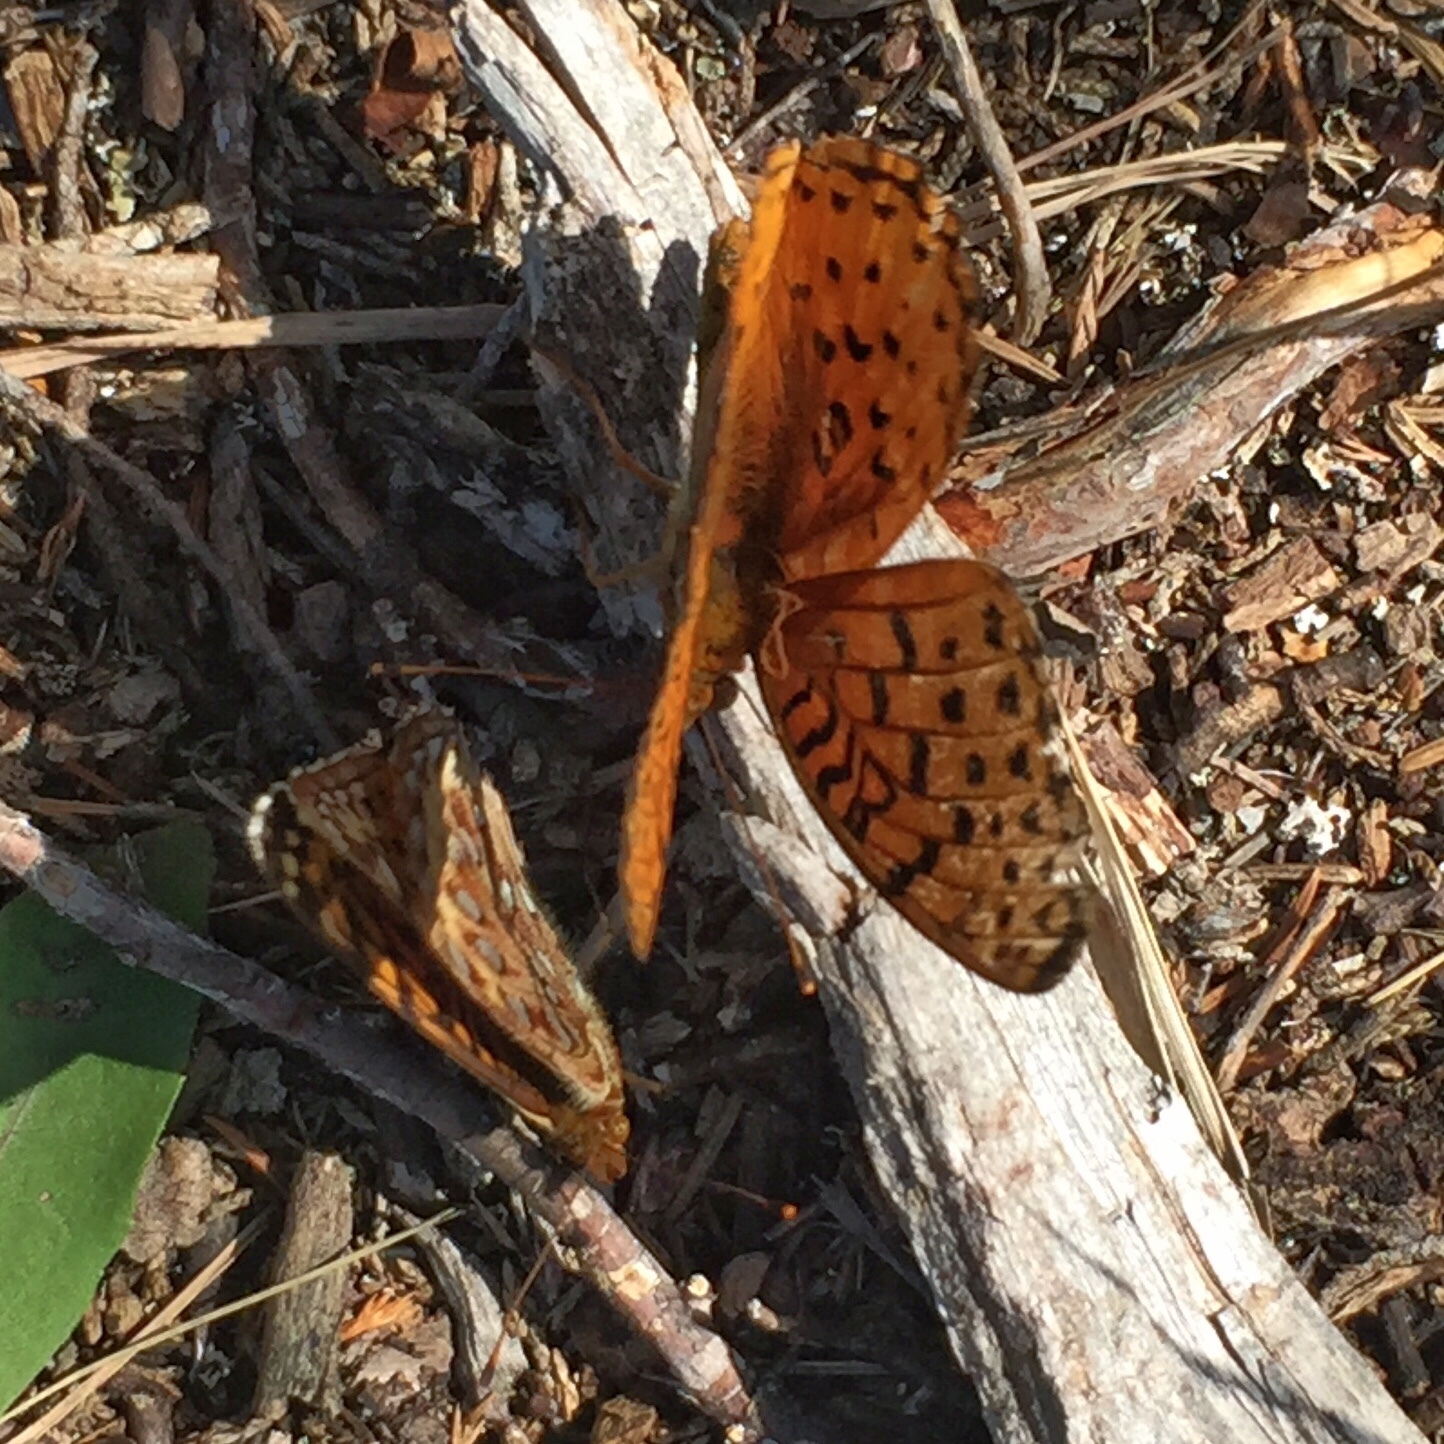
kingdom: Animalia
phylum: Arthropoda
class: Insecta
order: Lepidoptera
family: Nymphalidae
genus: Speyeria
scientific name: Speyeria aphrodite
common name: Aphrodite friitllary
